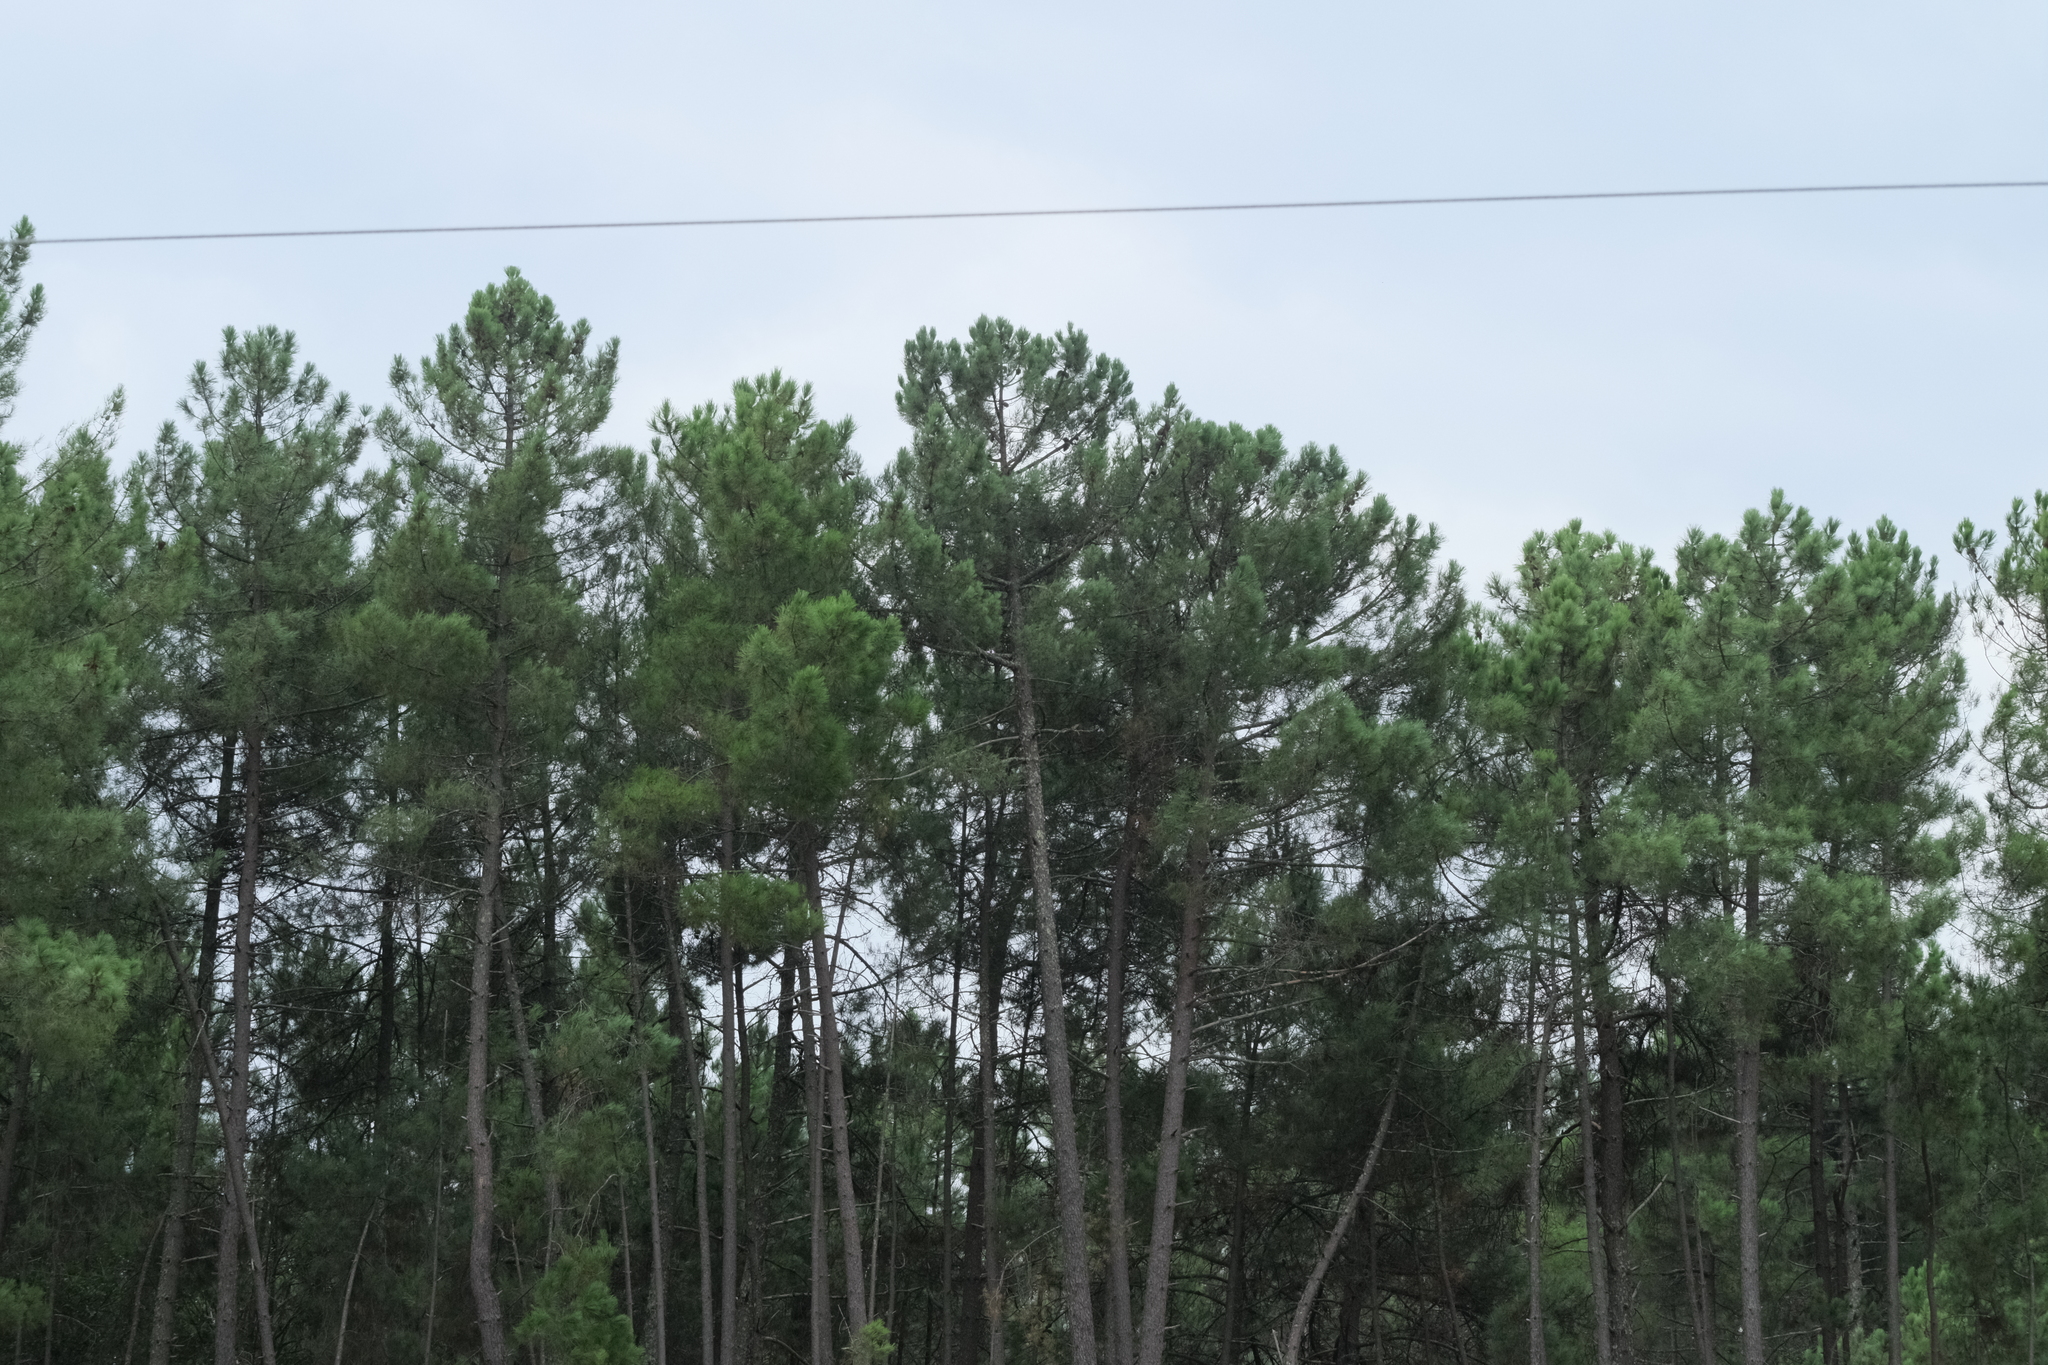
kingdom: Plantae
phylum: Tracheophyta
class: Pinopsida
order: Pinales
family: Pinaceae
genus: Pinus
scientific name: Pinus pinaster
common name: Maritime pine
